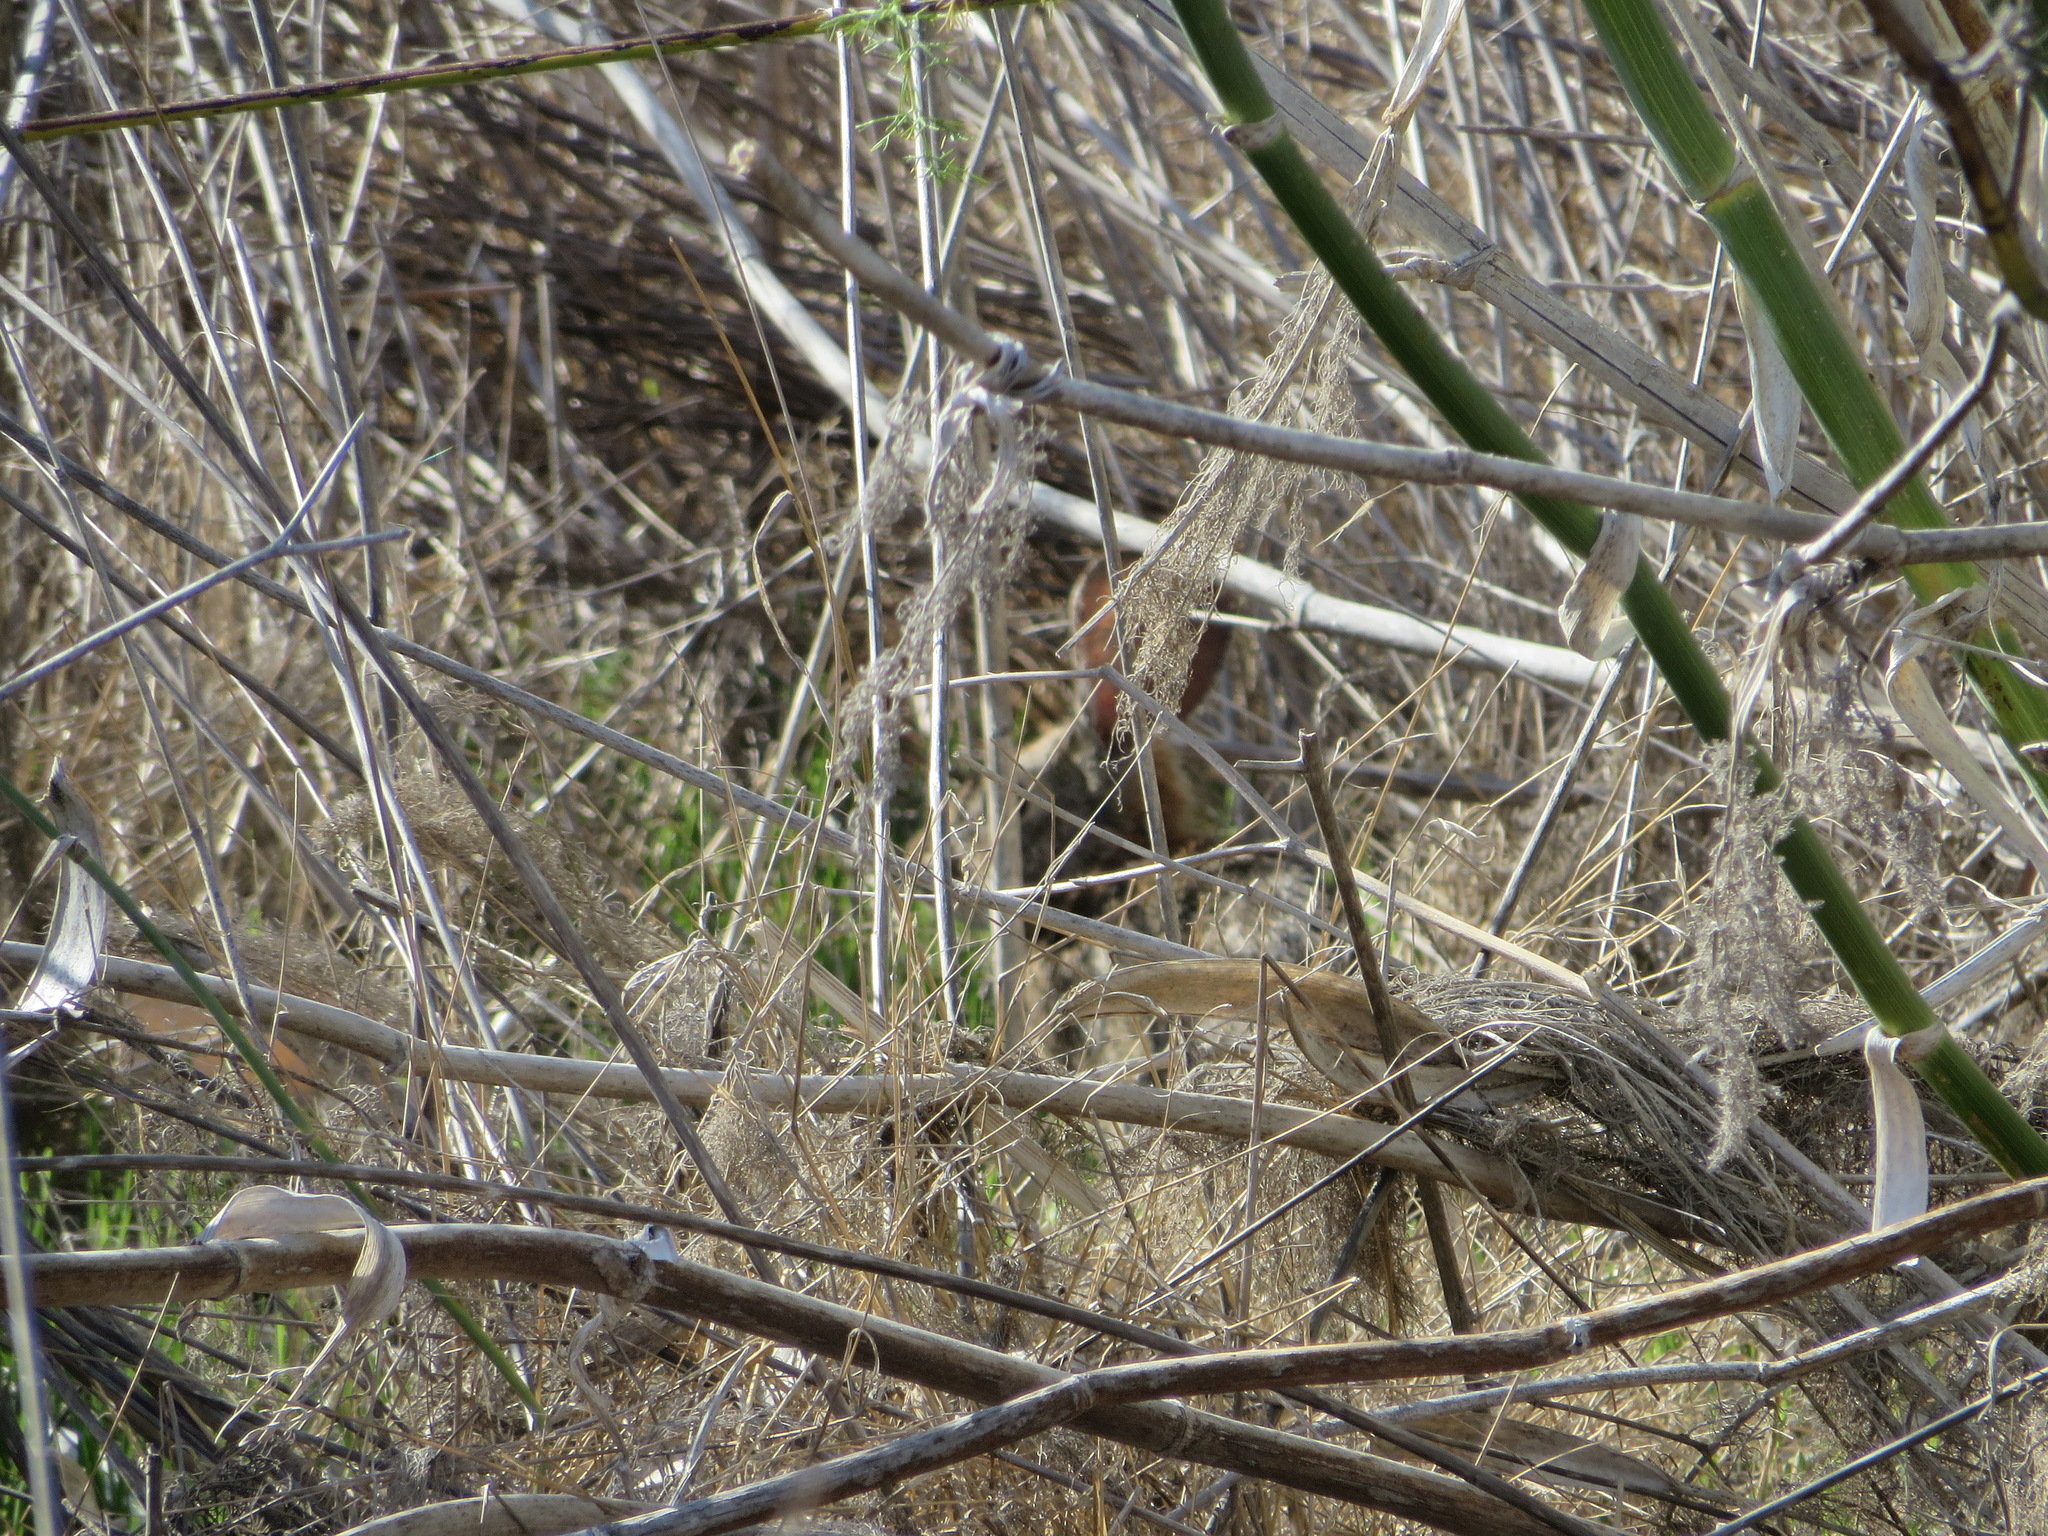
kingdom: Animalia
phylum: Chordata
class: Mammalia
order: Lagomorpha
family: Leporidae
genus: Sylvilagus
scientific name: Sylvilagus audubonii
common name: Desert cottontail
